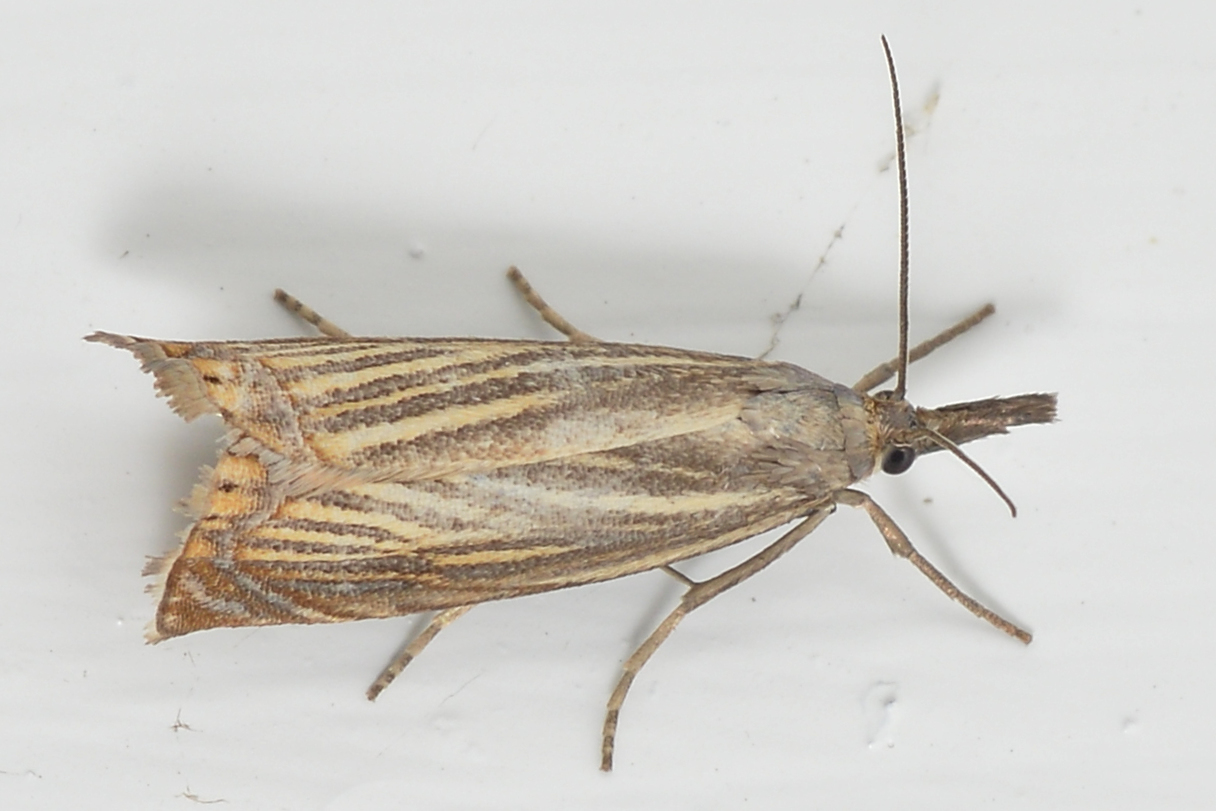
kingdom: Animalia
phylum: Arthropoda
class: Insecta
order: Lepidoptera
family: Crambidae
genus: Chrysoteuchia
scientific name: Chrysoteuchia culmella
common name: Garden grass-veneer
